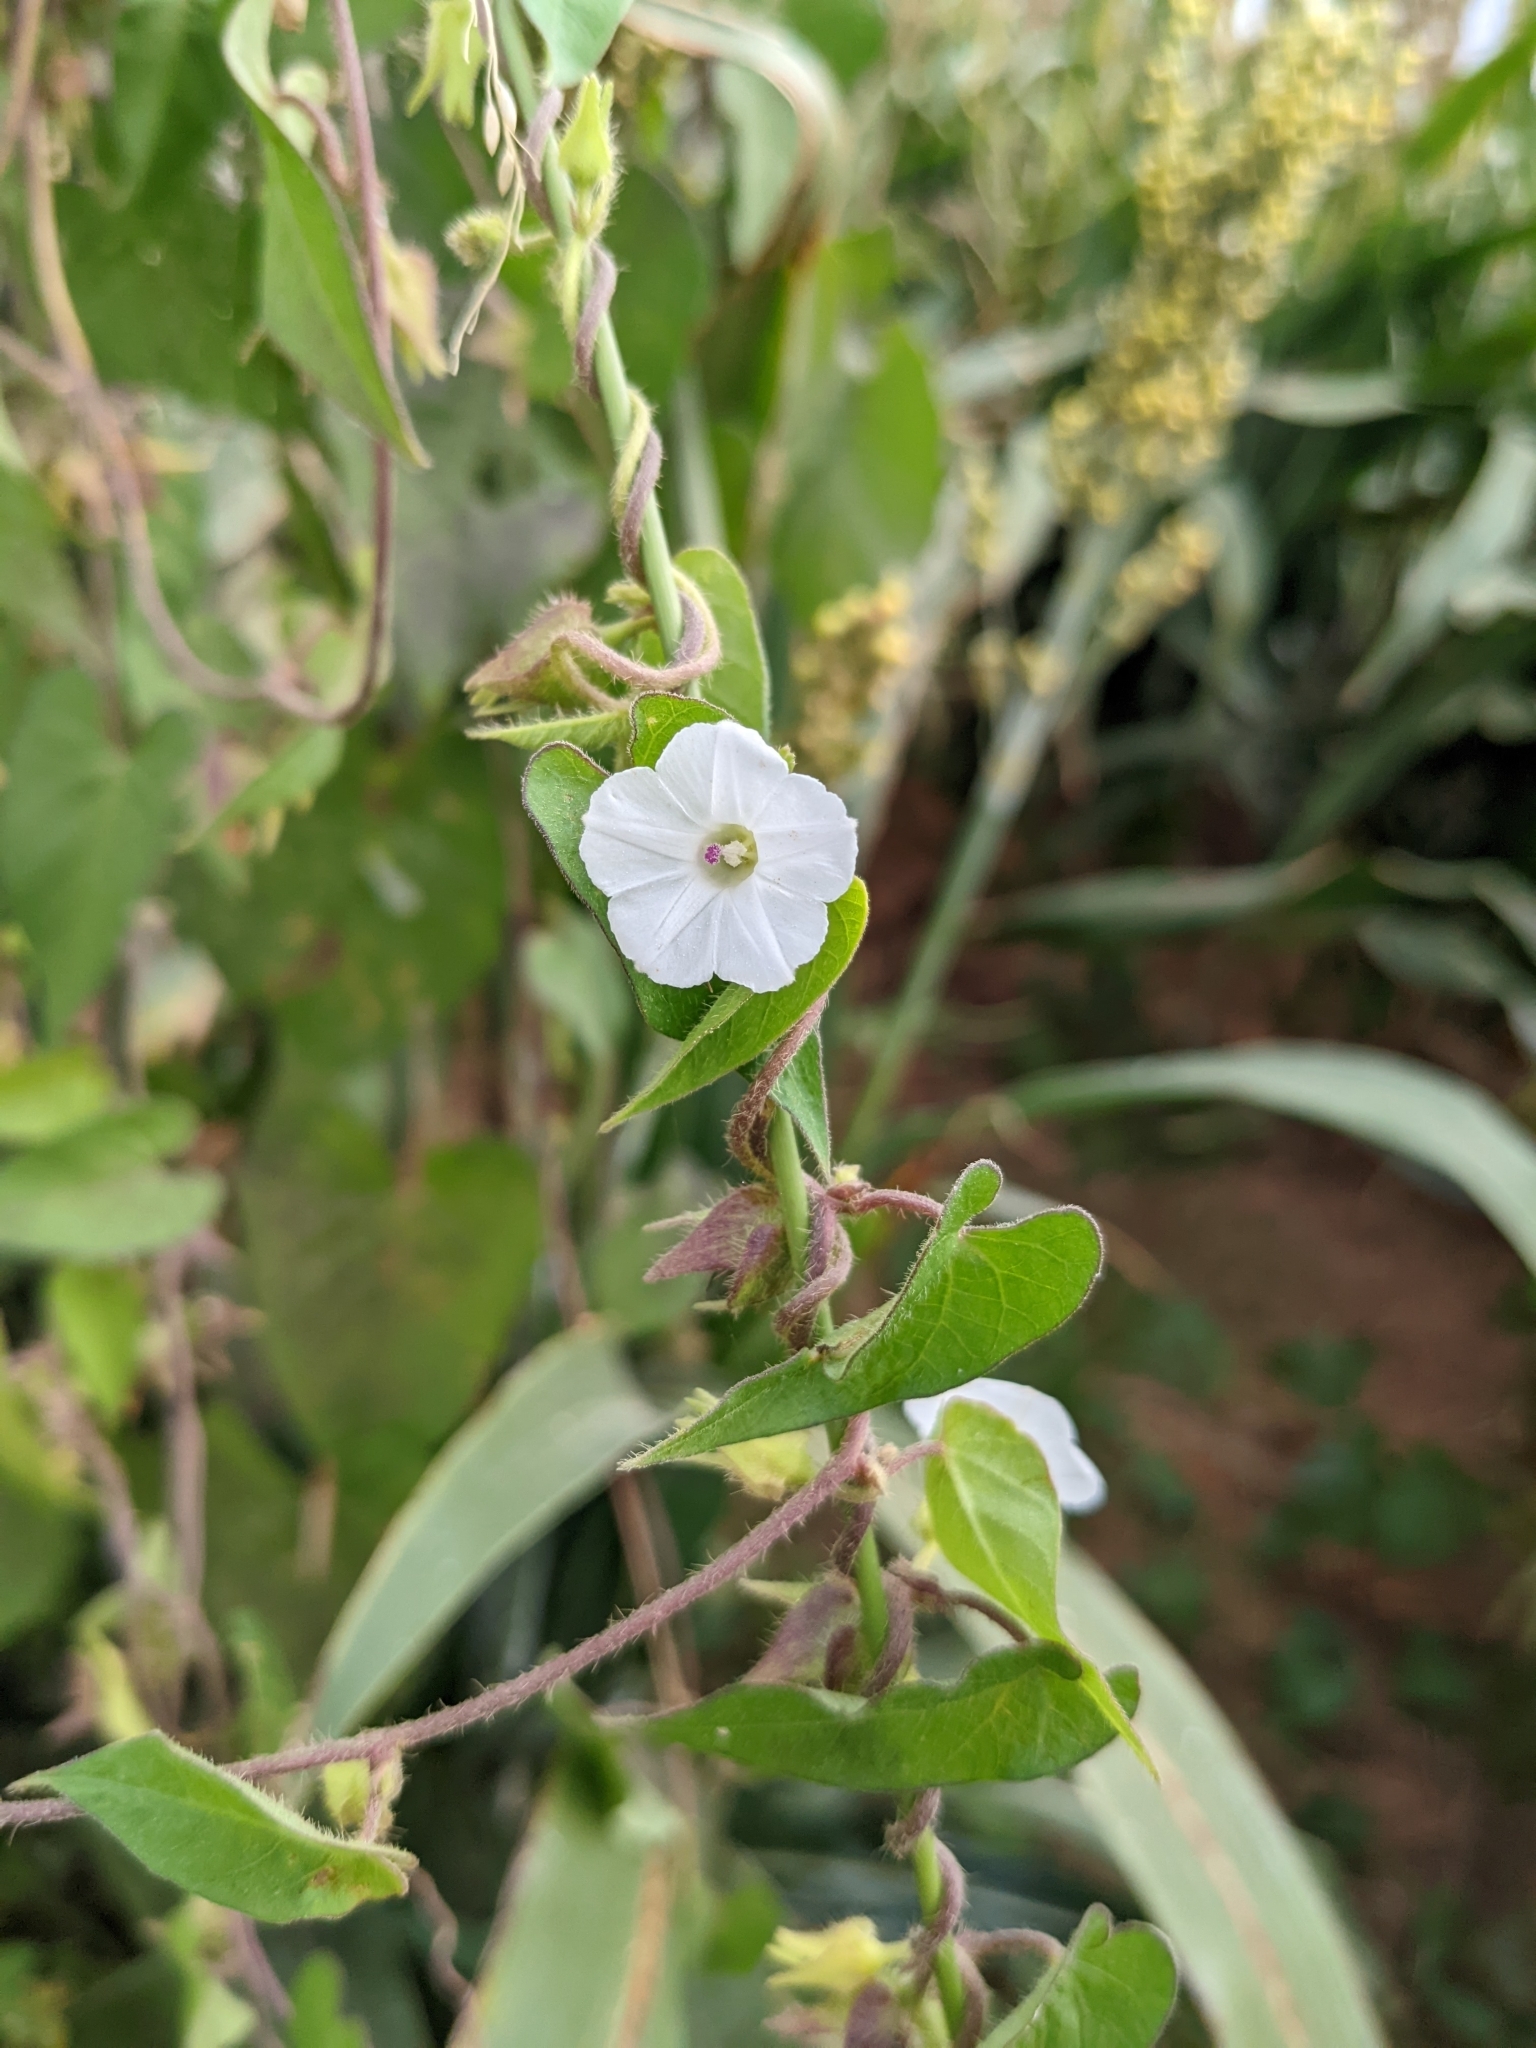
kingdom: Plantae
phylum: Tracheophyta
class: Magnoliopsida
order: Solanales
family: Convolvulaceae
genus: Ipomoea
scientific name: Ipomoea biflora
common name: Bellvine
